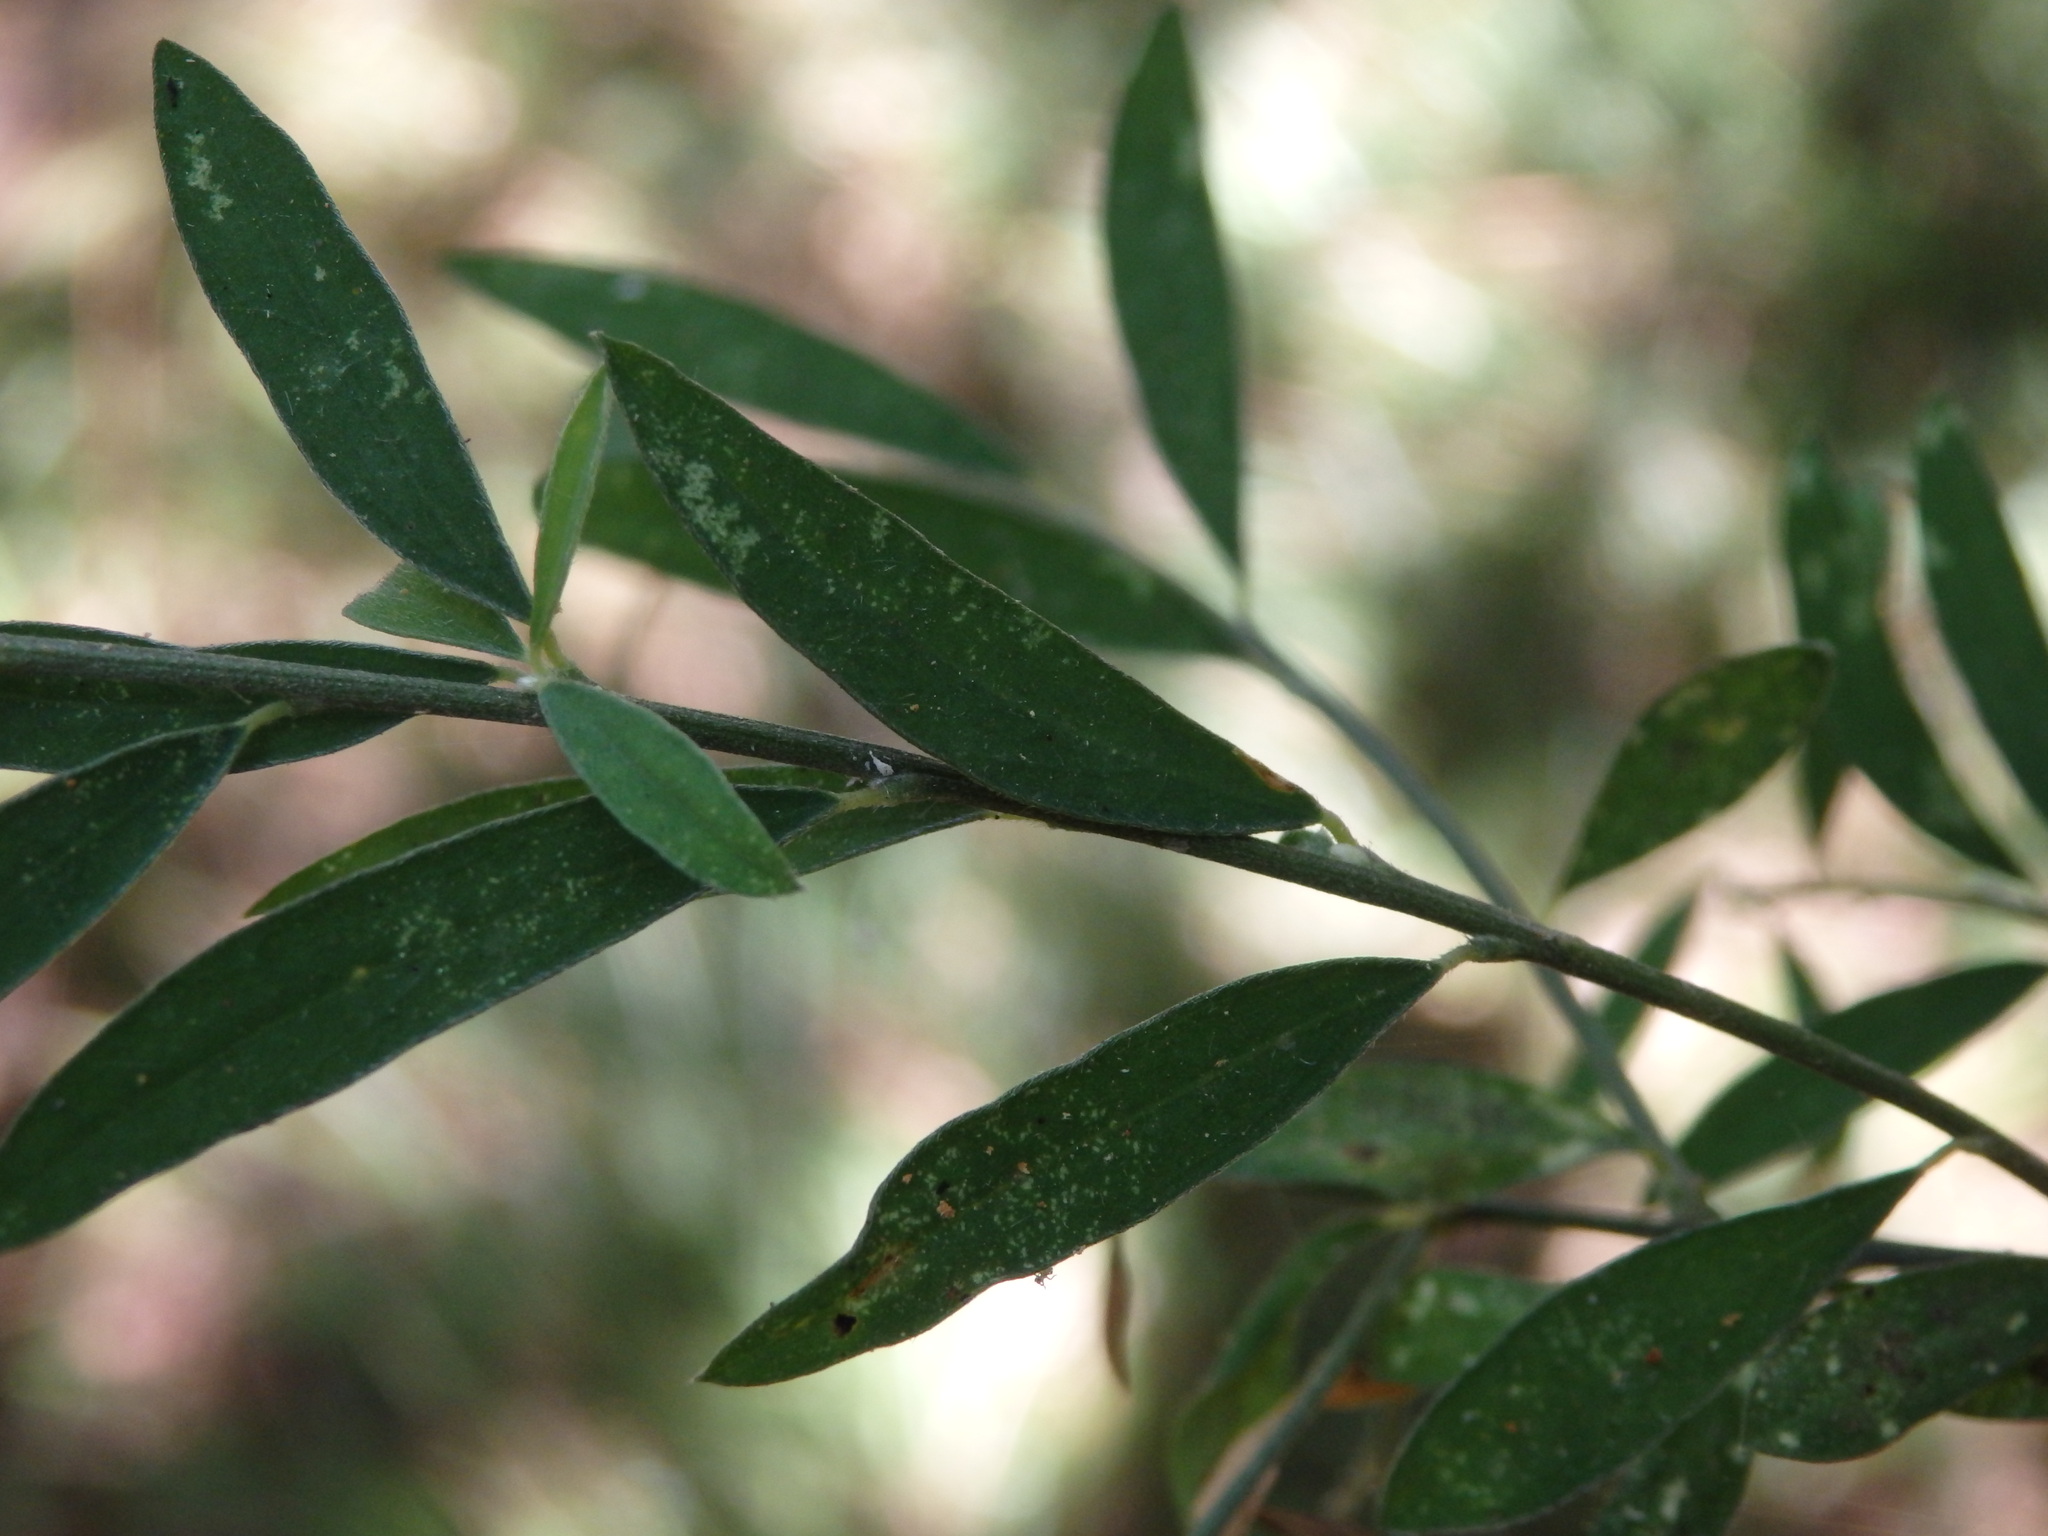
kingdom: Plantae
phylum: Tracheophyta
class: Magnoliopsida
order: Fabales
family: Fabaceae
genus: Genista
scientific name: Genista florida
